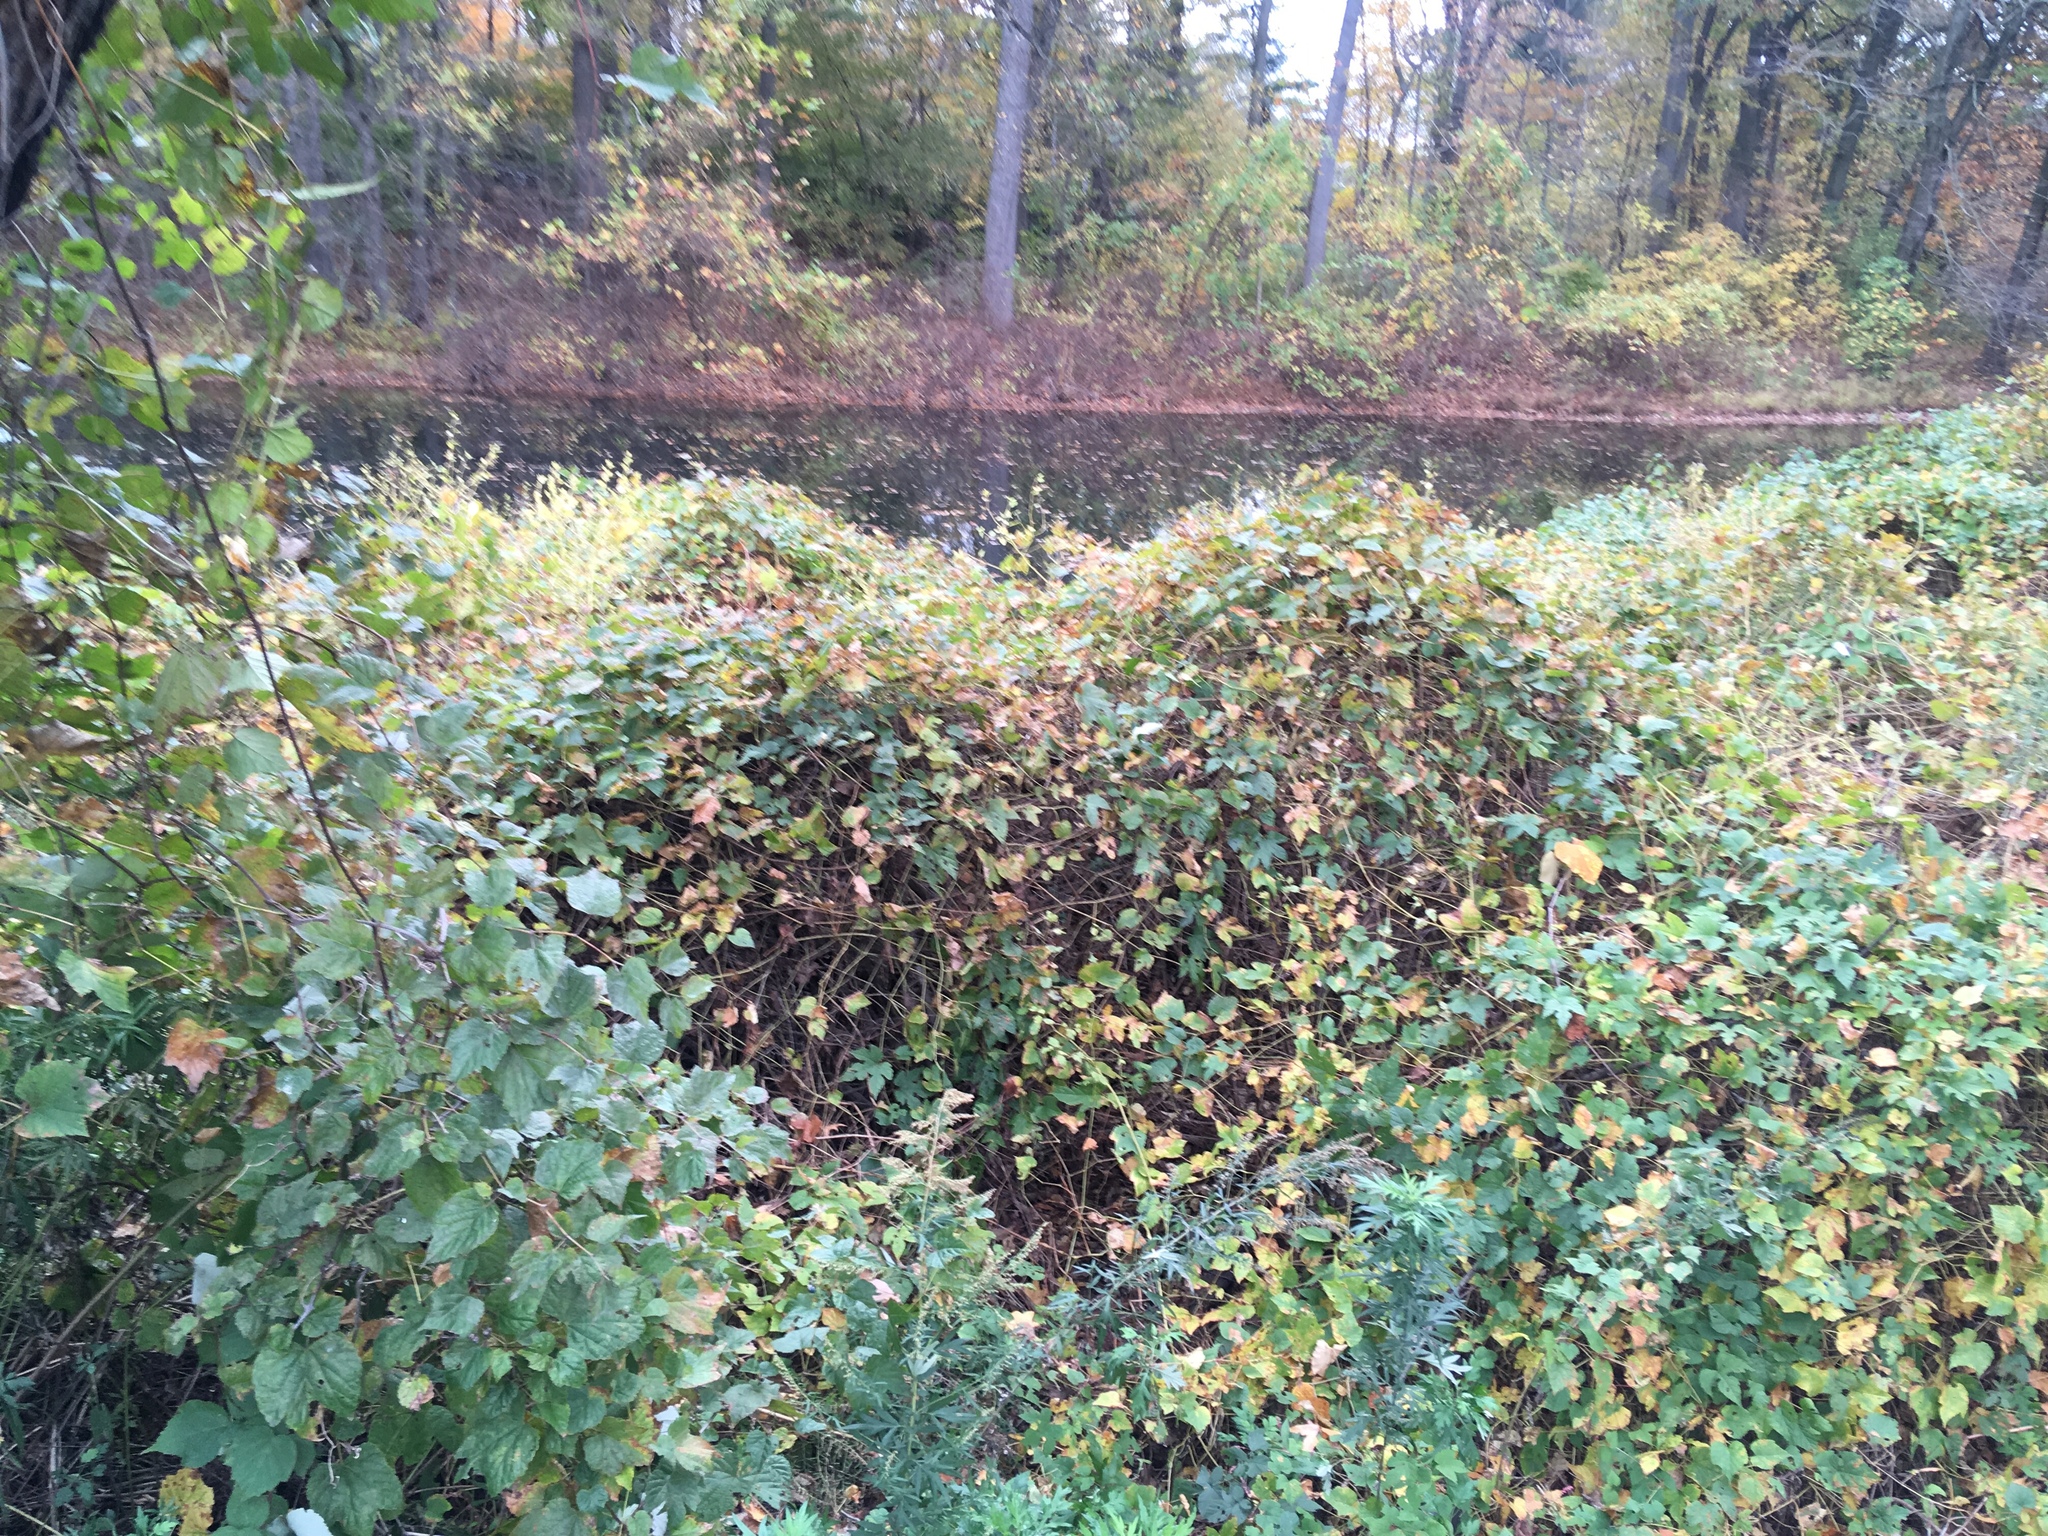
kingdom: Plantae
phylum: Tracheophyta
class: Magnoliopsida
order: Vitales
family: Vitaceae
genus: Ampelopsis
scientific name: Ampelopsis glandulosa
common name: Amur peppervine
